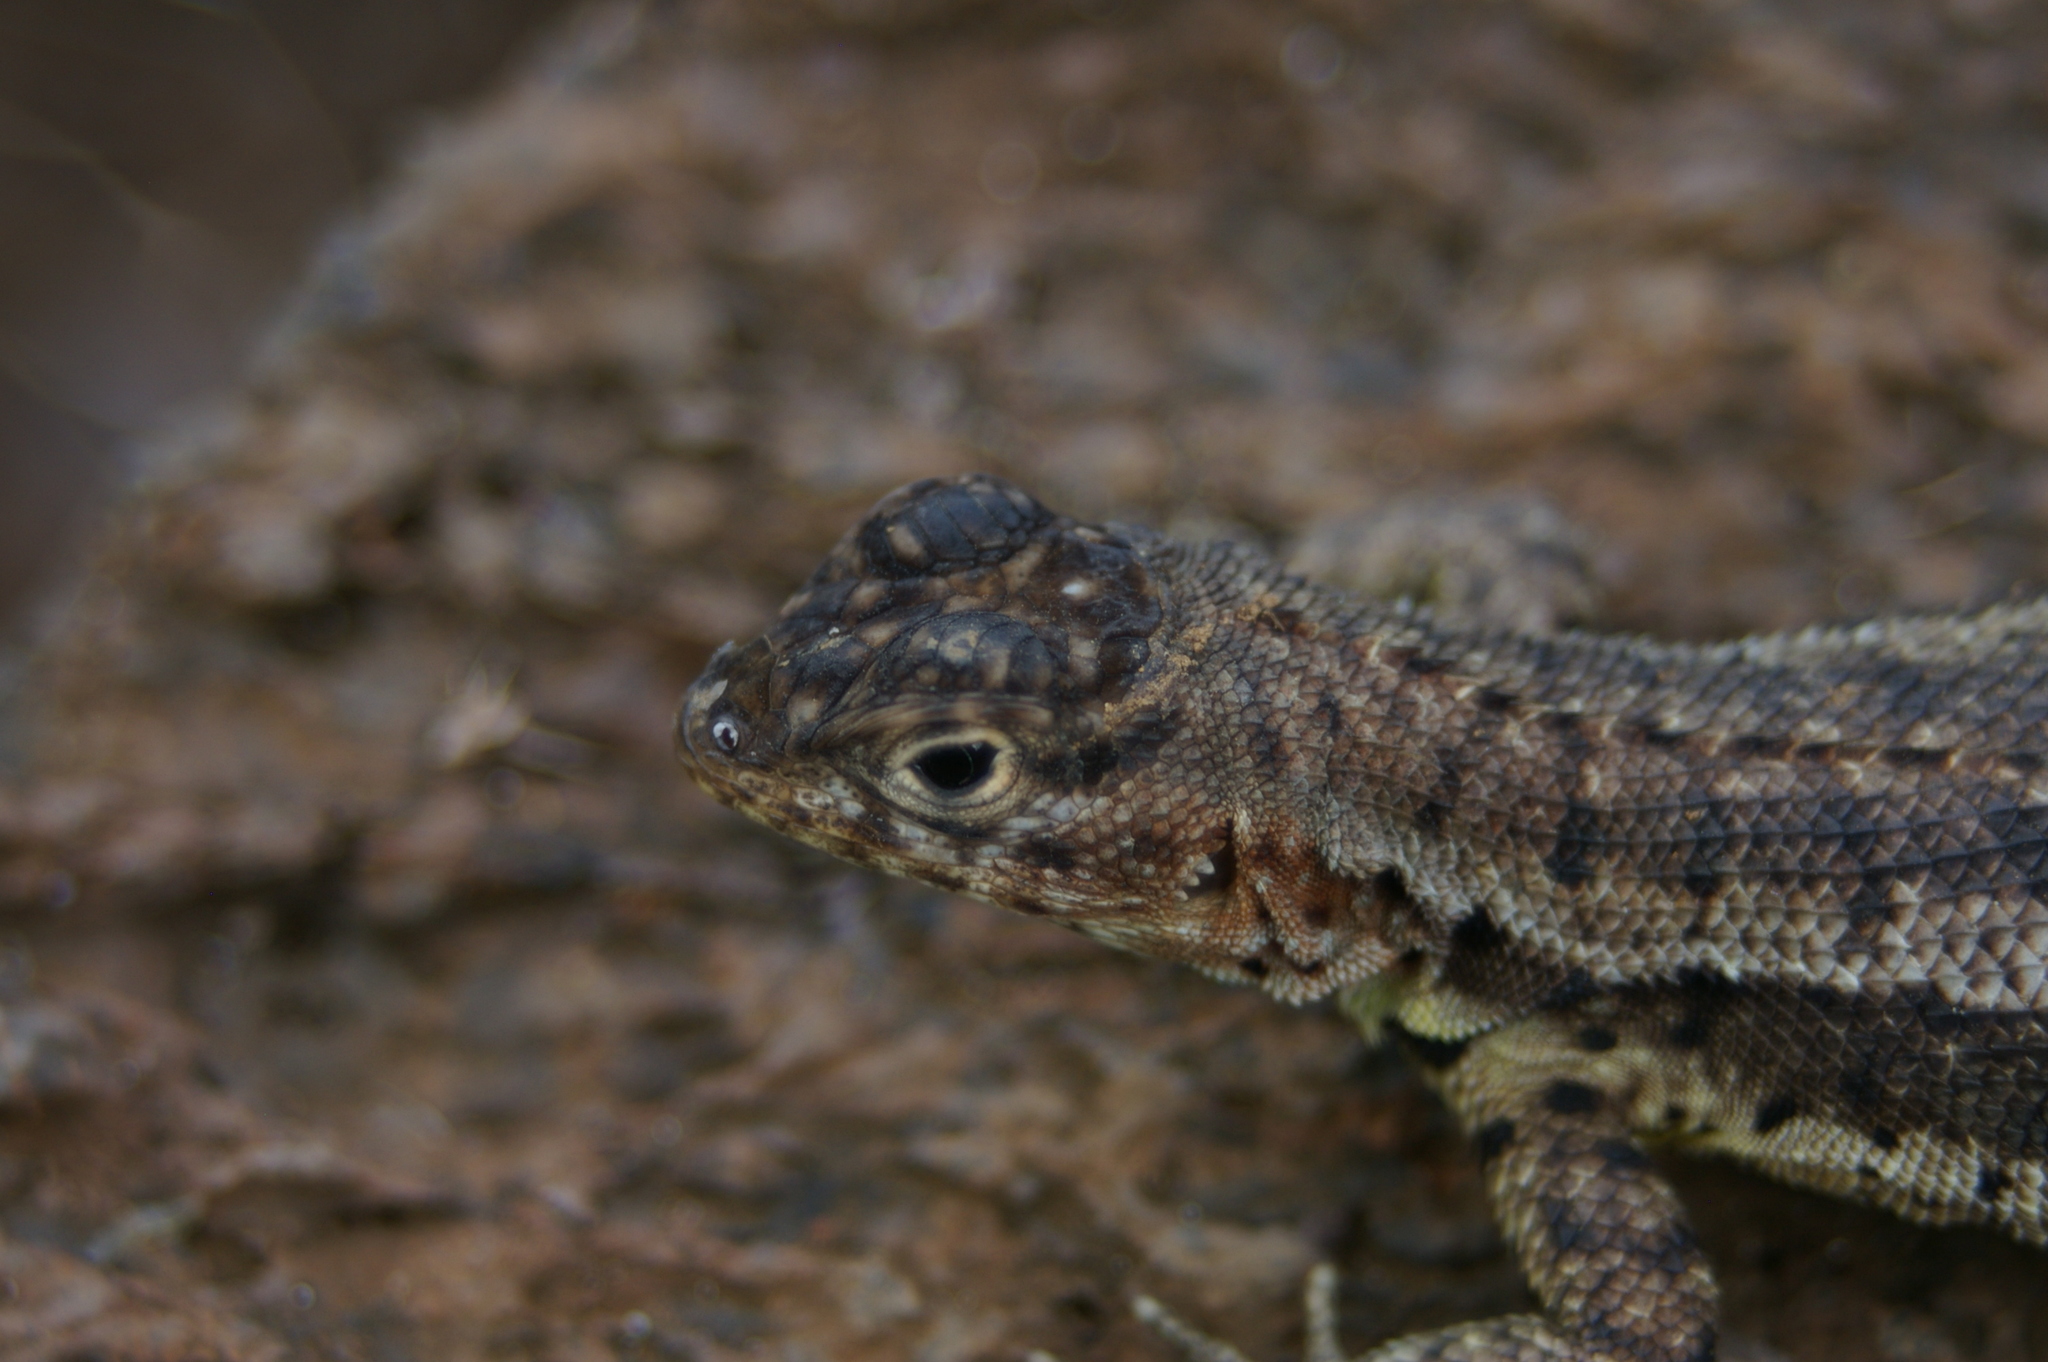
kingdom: Animalia
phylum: Chordata
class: Squamata
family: Tropiduridae
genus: Microlophus
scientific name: Microlophus albemarlensis
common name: Galapagos lava lizard
